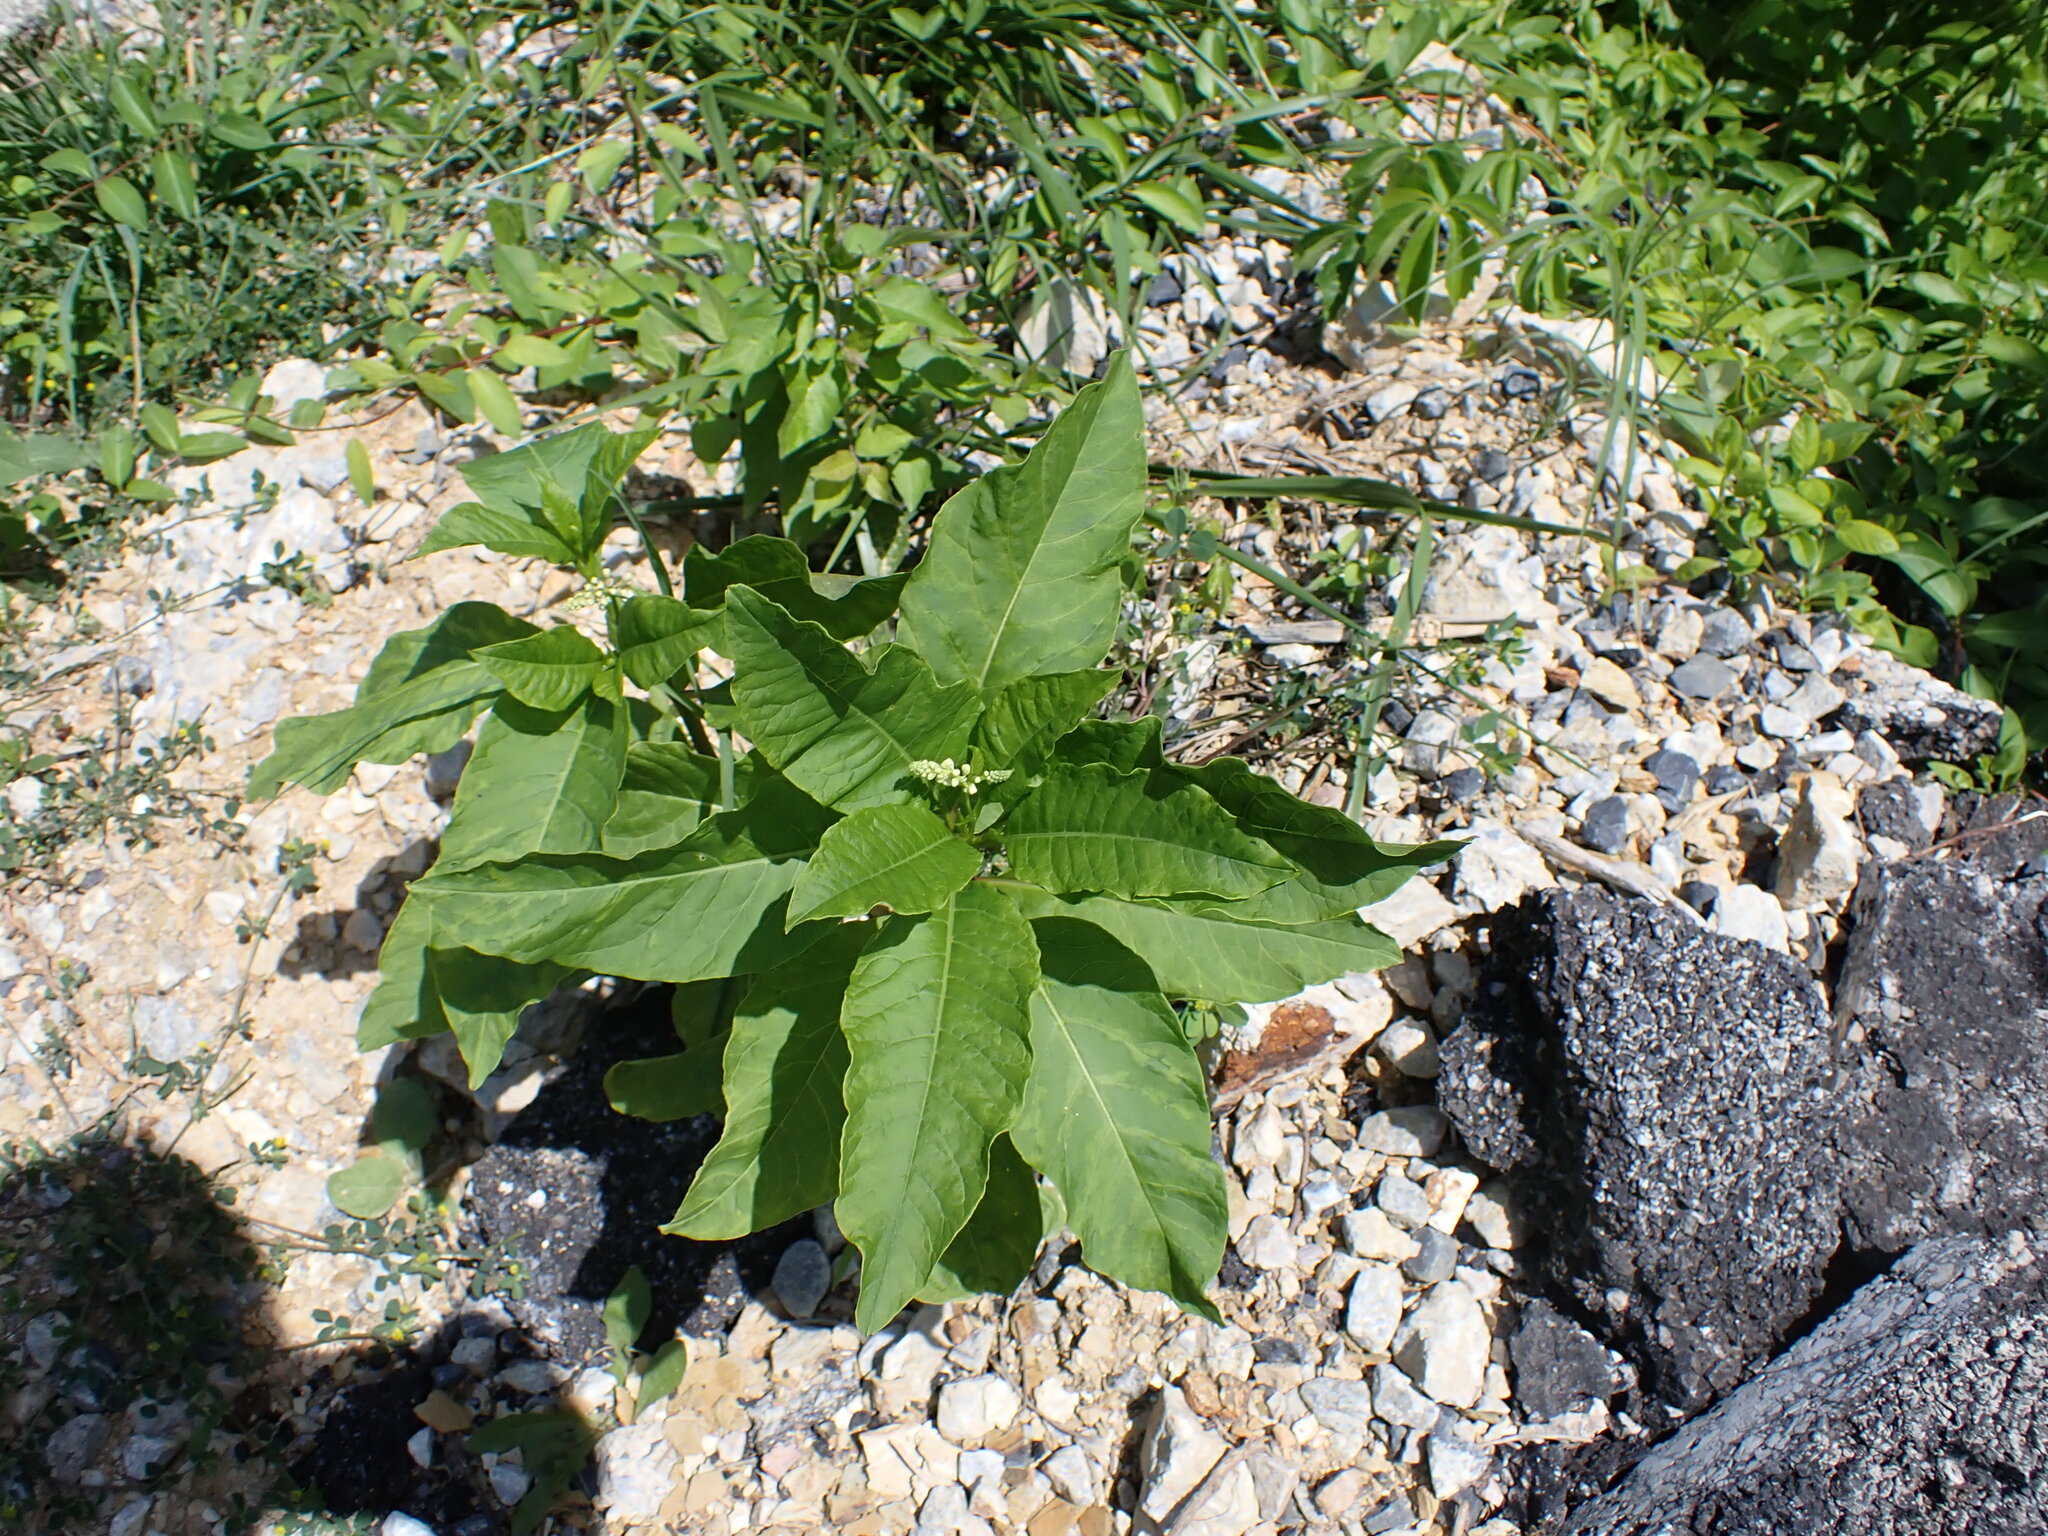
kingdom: Plantae
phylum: Tracheophyta
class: Magnoliopsida
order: Caryophyllales
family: Phytolaccaceae
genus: Phytolacca
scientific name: Phytolacca americana
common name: American pokeweed
